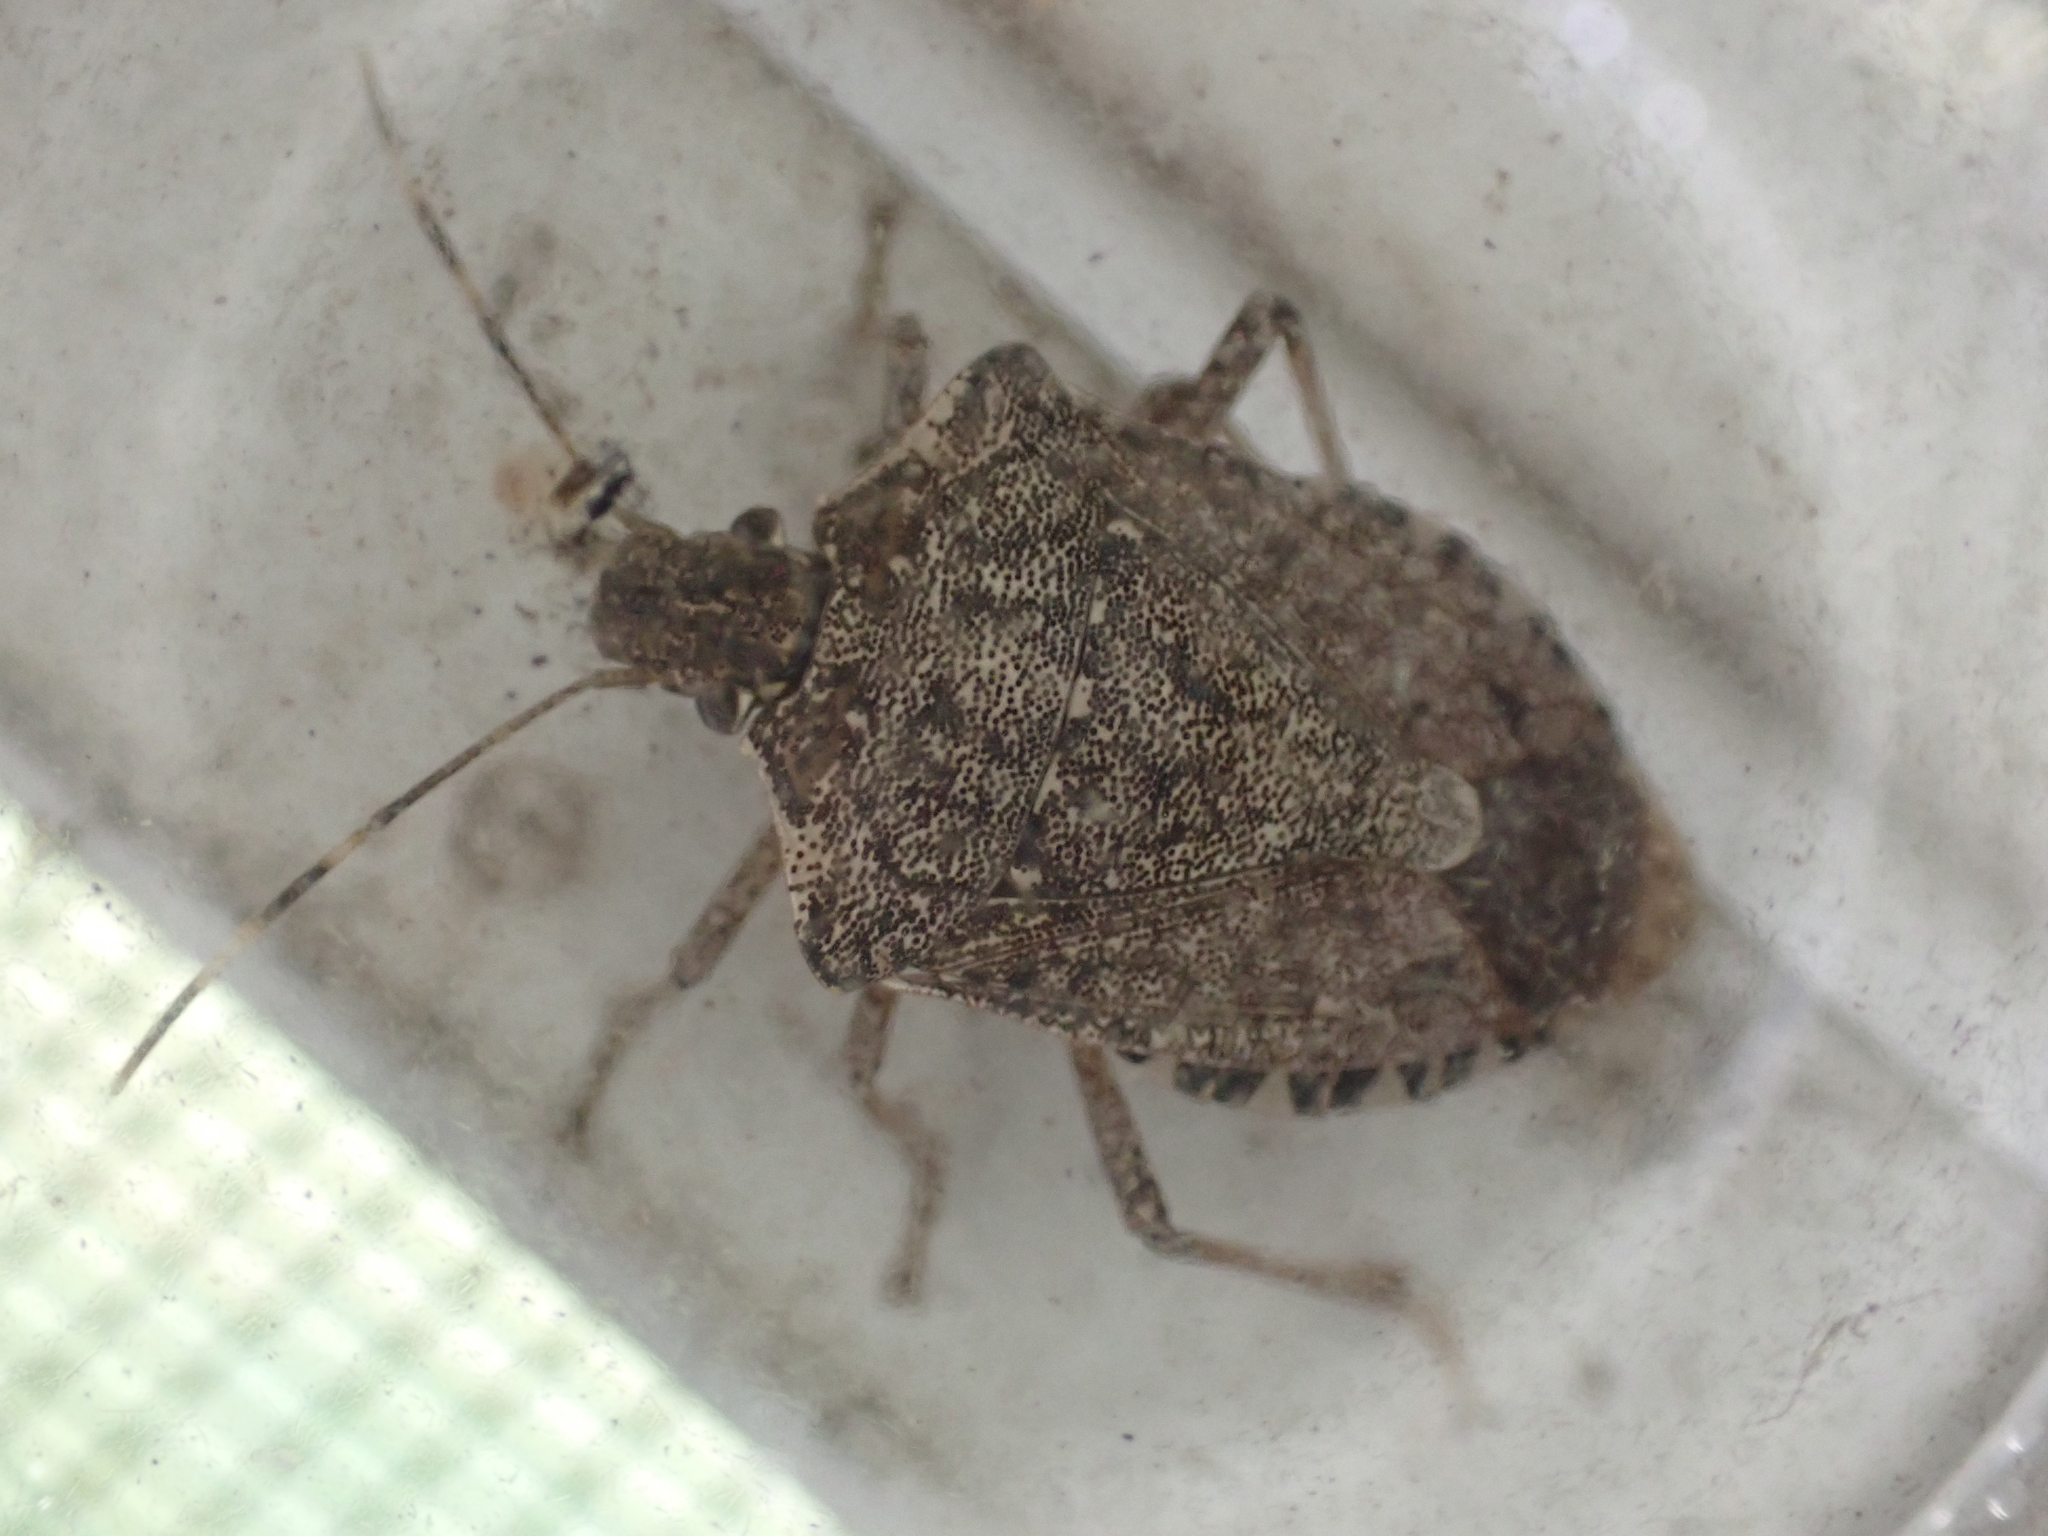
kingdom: Animalia
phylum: Arthropoda
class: Insecta
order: Hemiptera
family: Pentatomidae
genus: Halyomorpha
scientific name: Halyomorpha halys
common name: Brown marmorated stink bug
